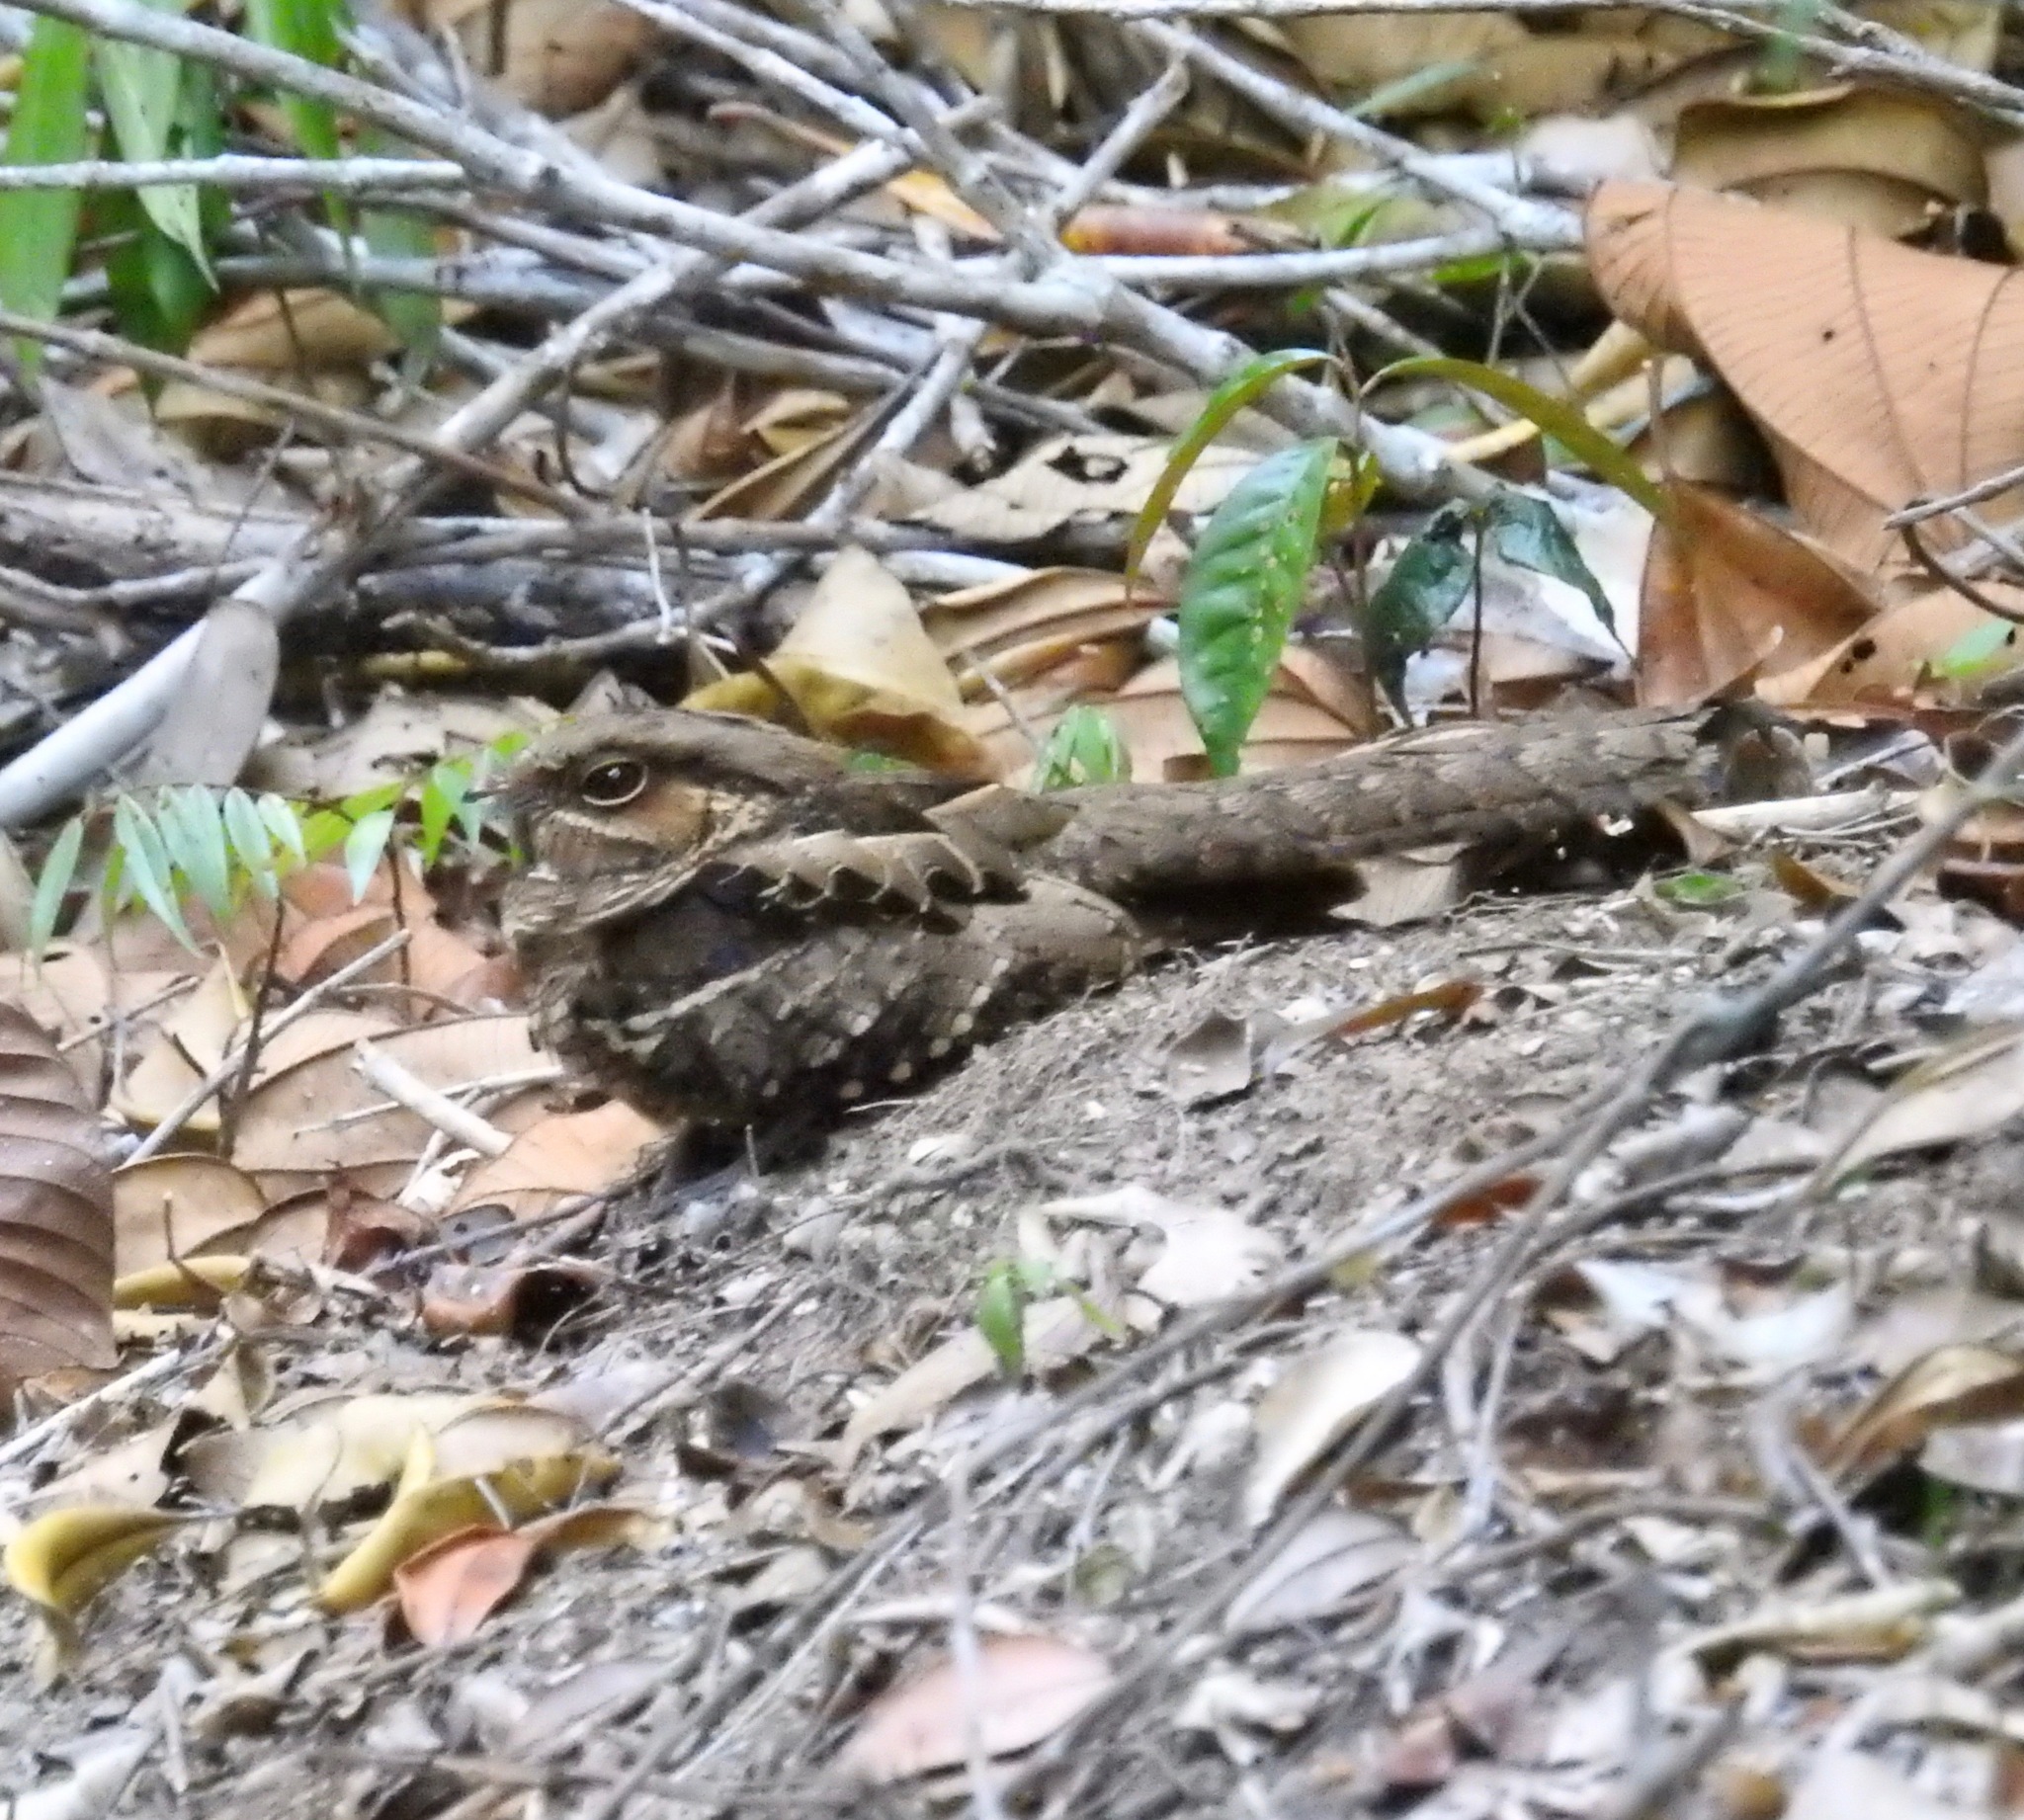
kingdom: Animalia
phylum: Chordata
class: Aves
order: Caprimulgiformes
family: Caprimulgidae
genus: Nyctidromus
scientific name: Nyctidromus albicollis
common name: Pauraque
